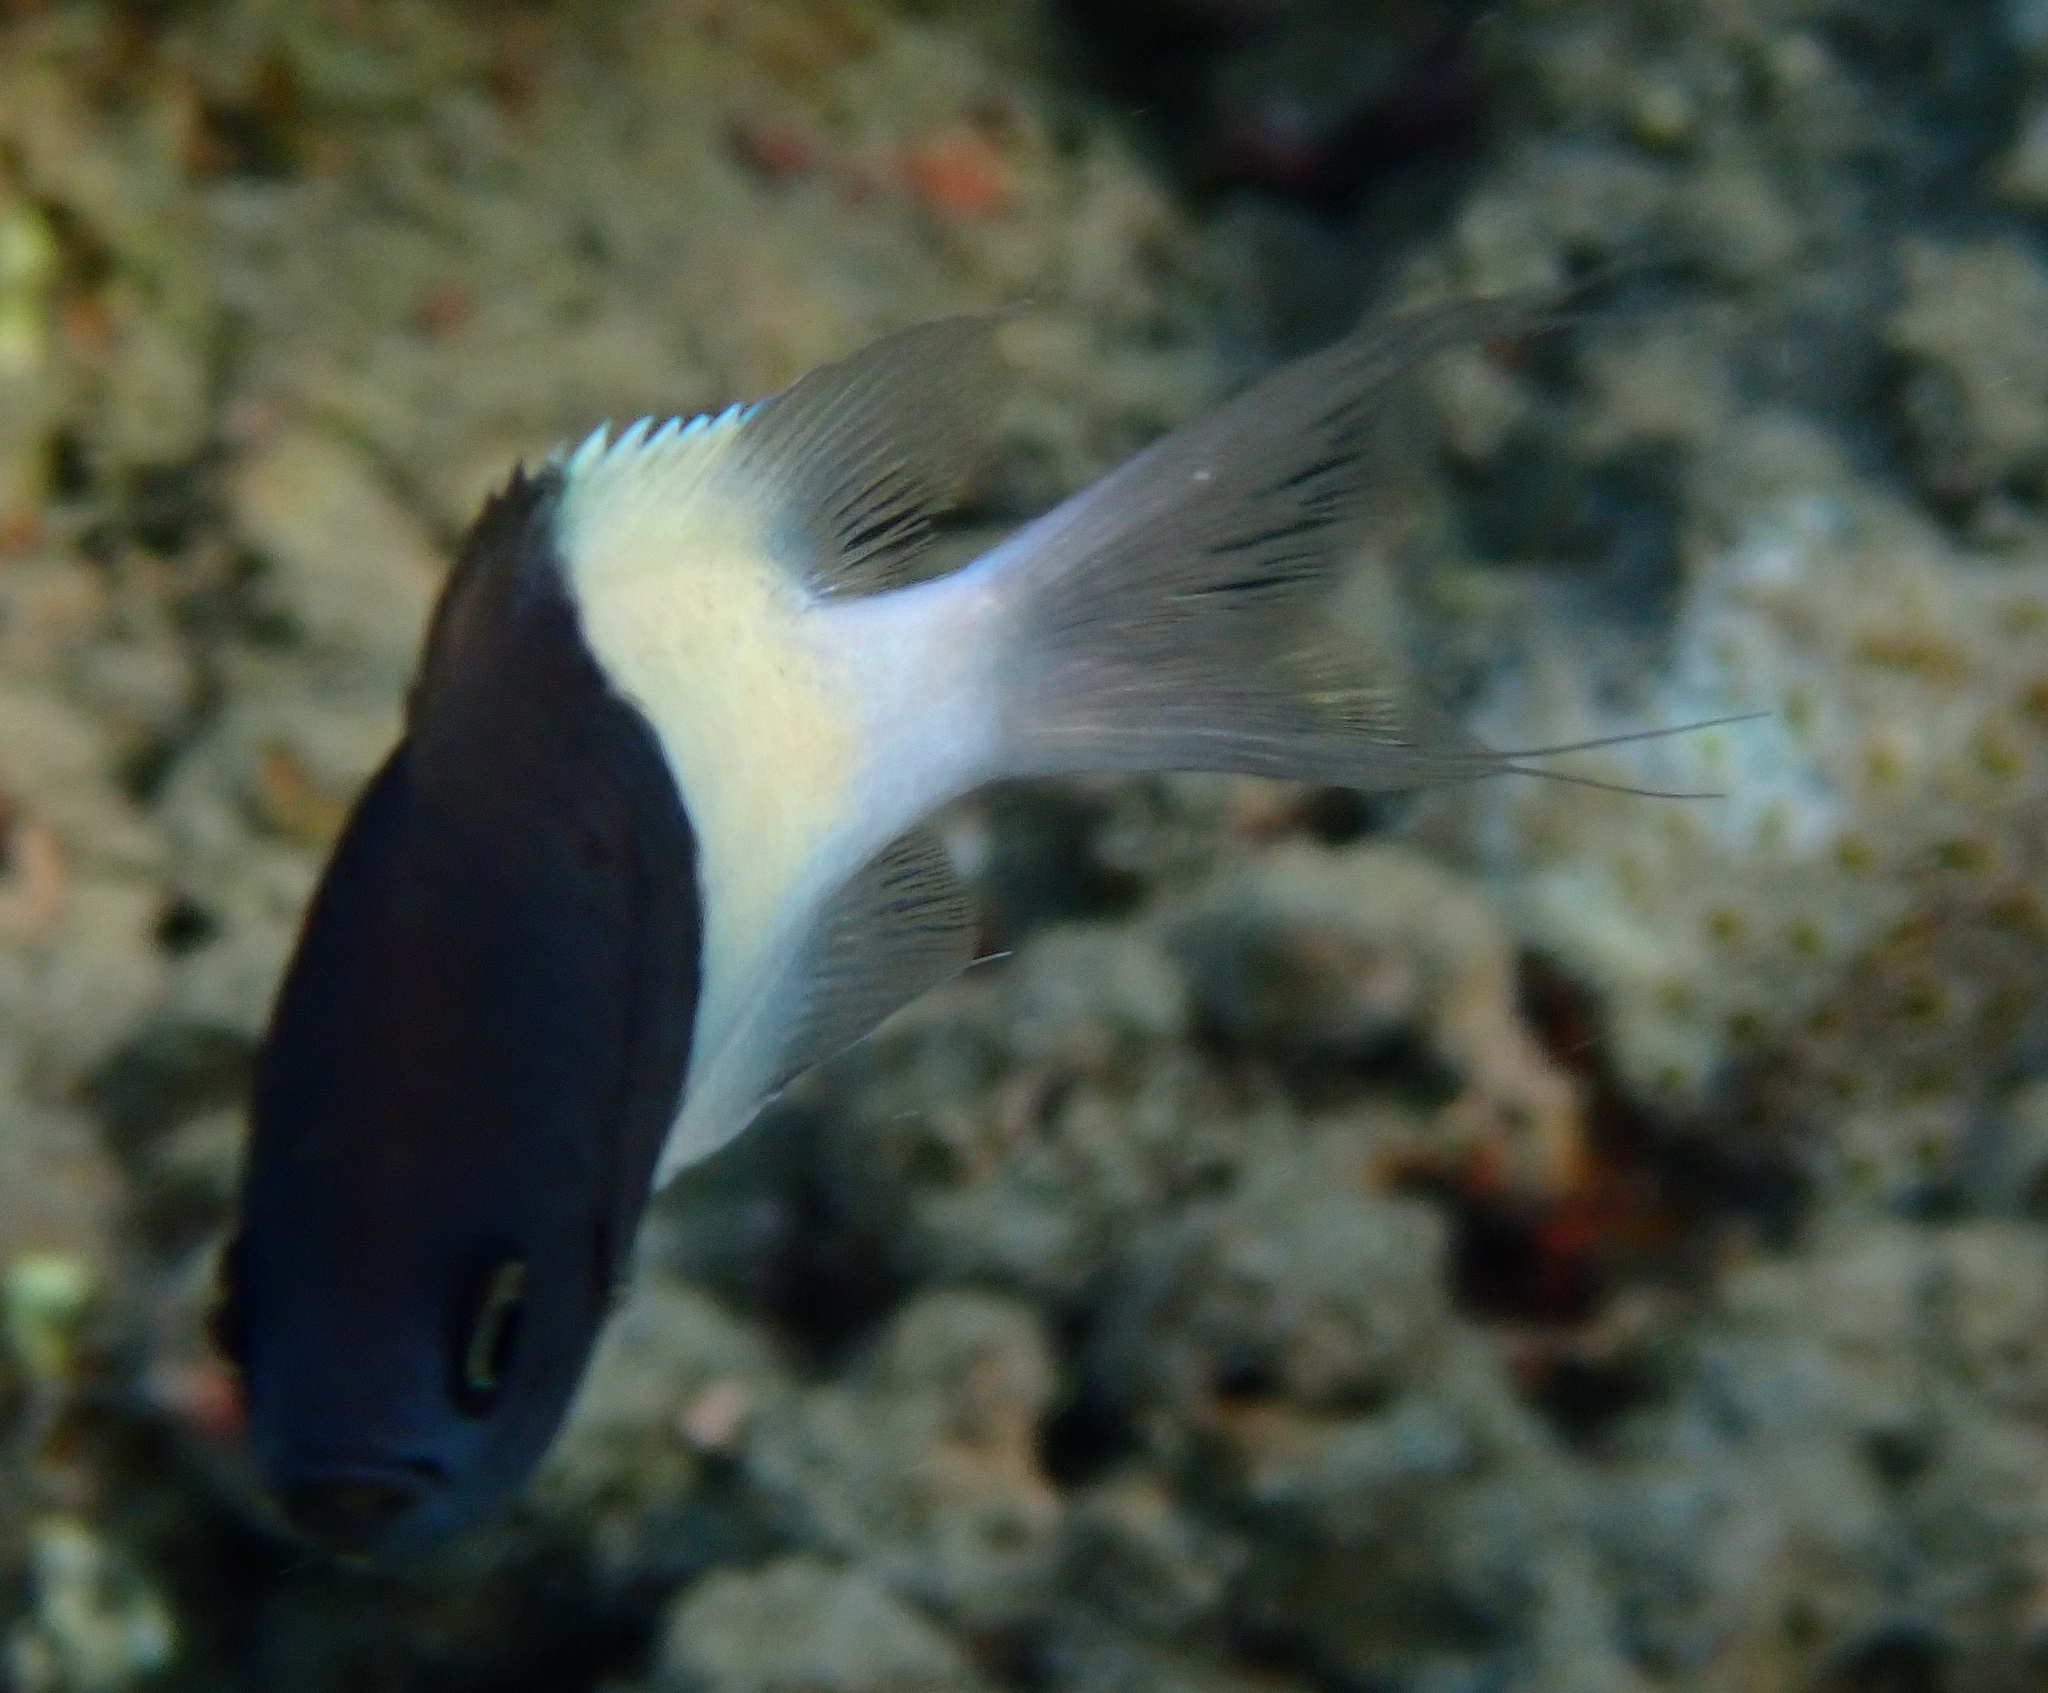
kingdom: Animalia
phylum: Chordata
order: Perciformes
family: Pomacentridae
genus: Chromis
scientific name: Chromis dimidiata
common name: Half-and-half chromis
